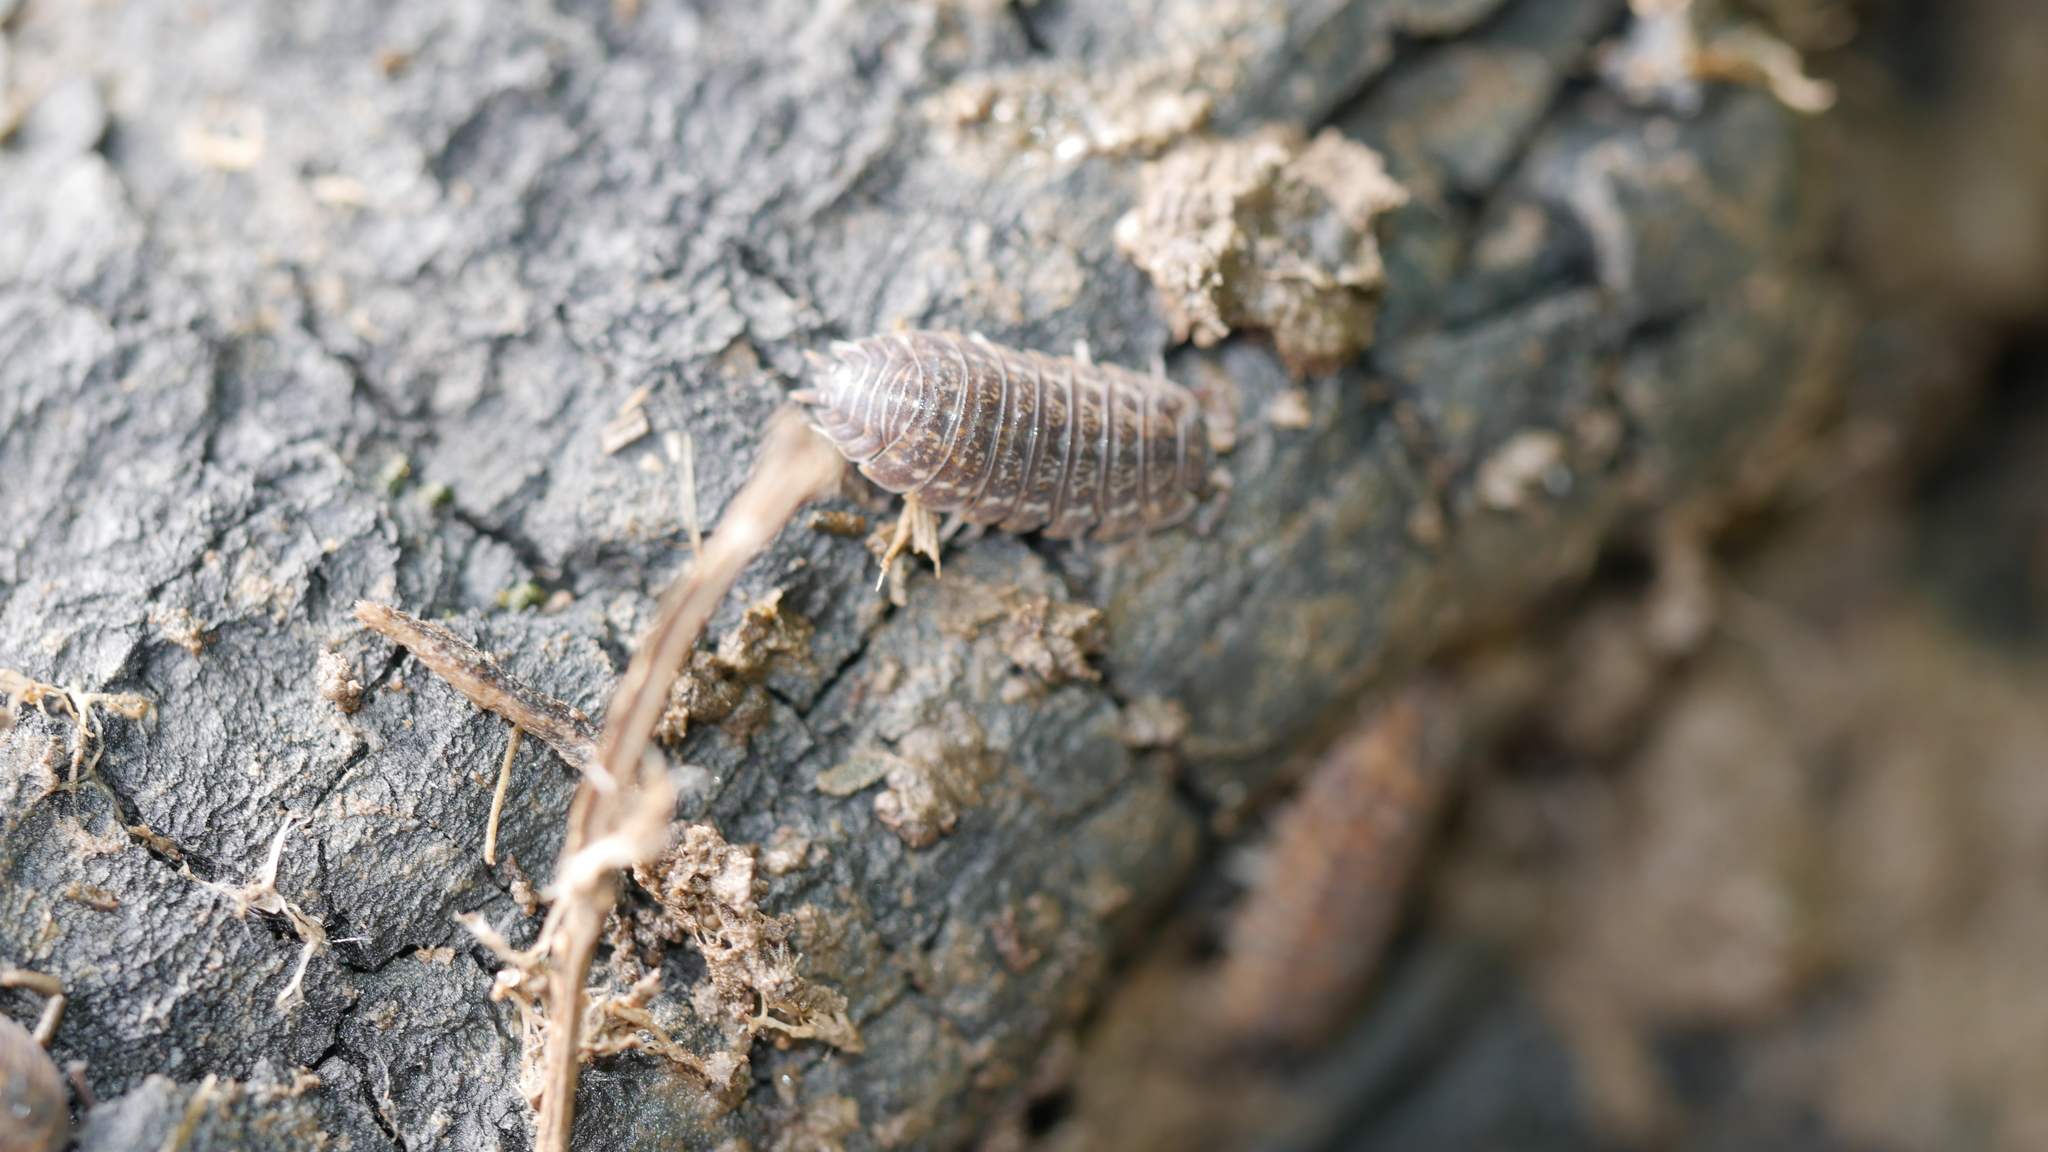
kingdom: Animalia
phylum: Arthropoda
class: Malacostraca
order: Isopoda
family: Trachelipodidae
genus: Trachelipus
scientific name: Trachelipus rathkii
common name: Isopod
